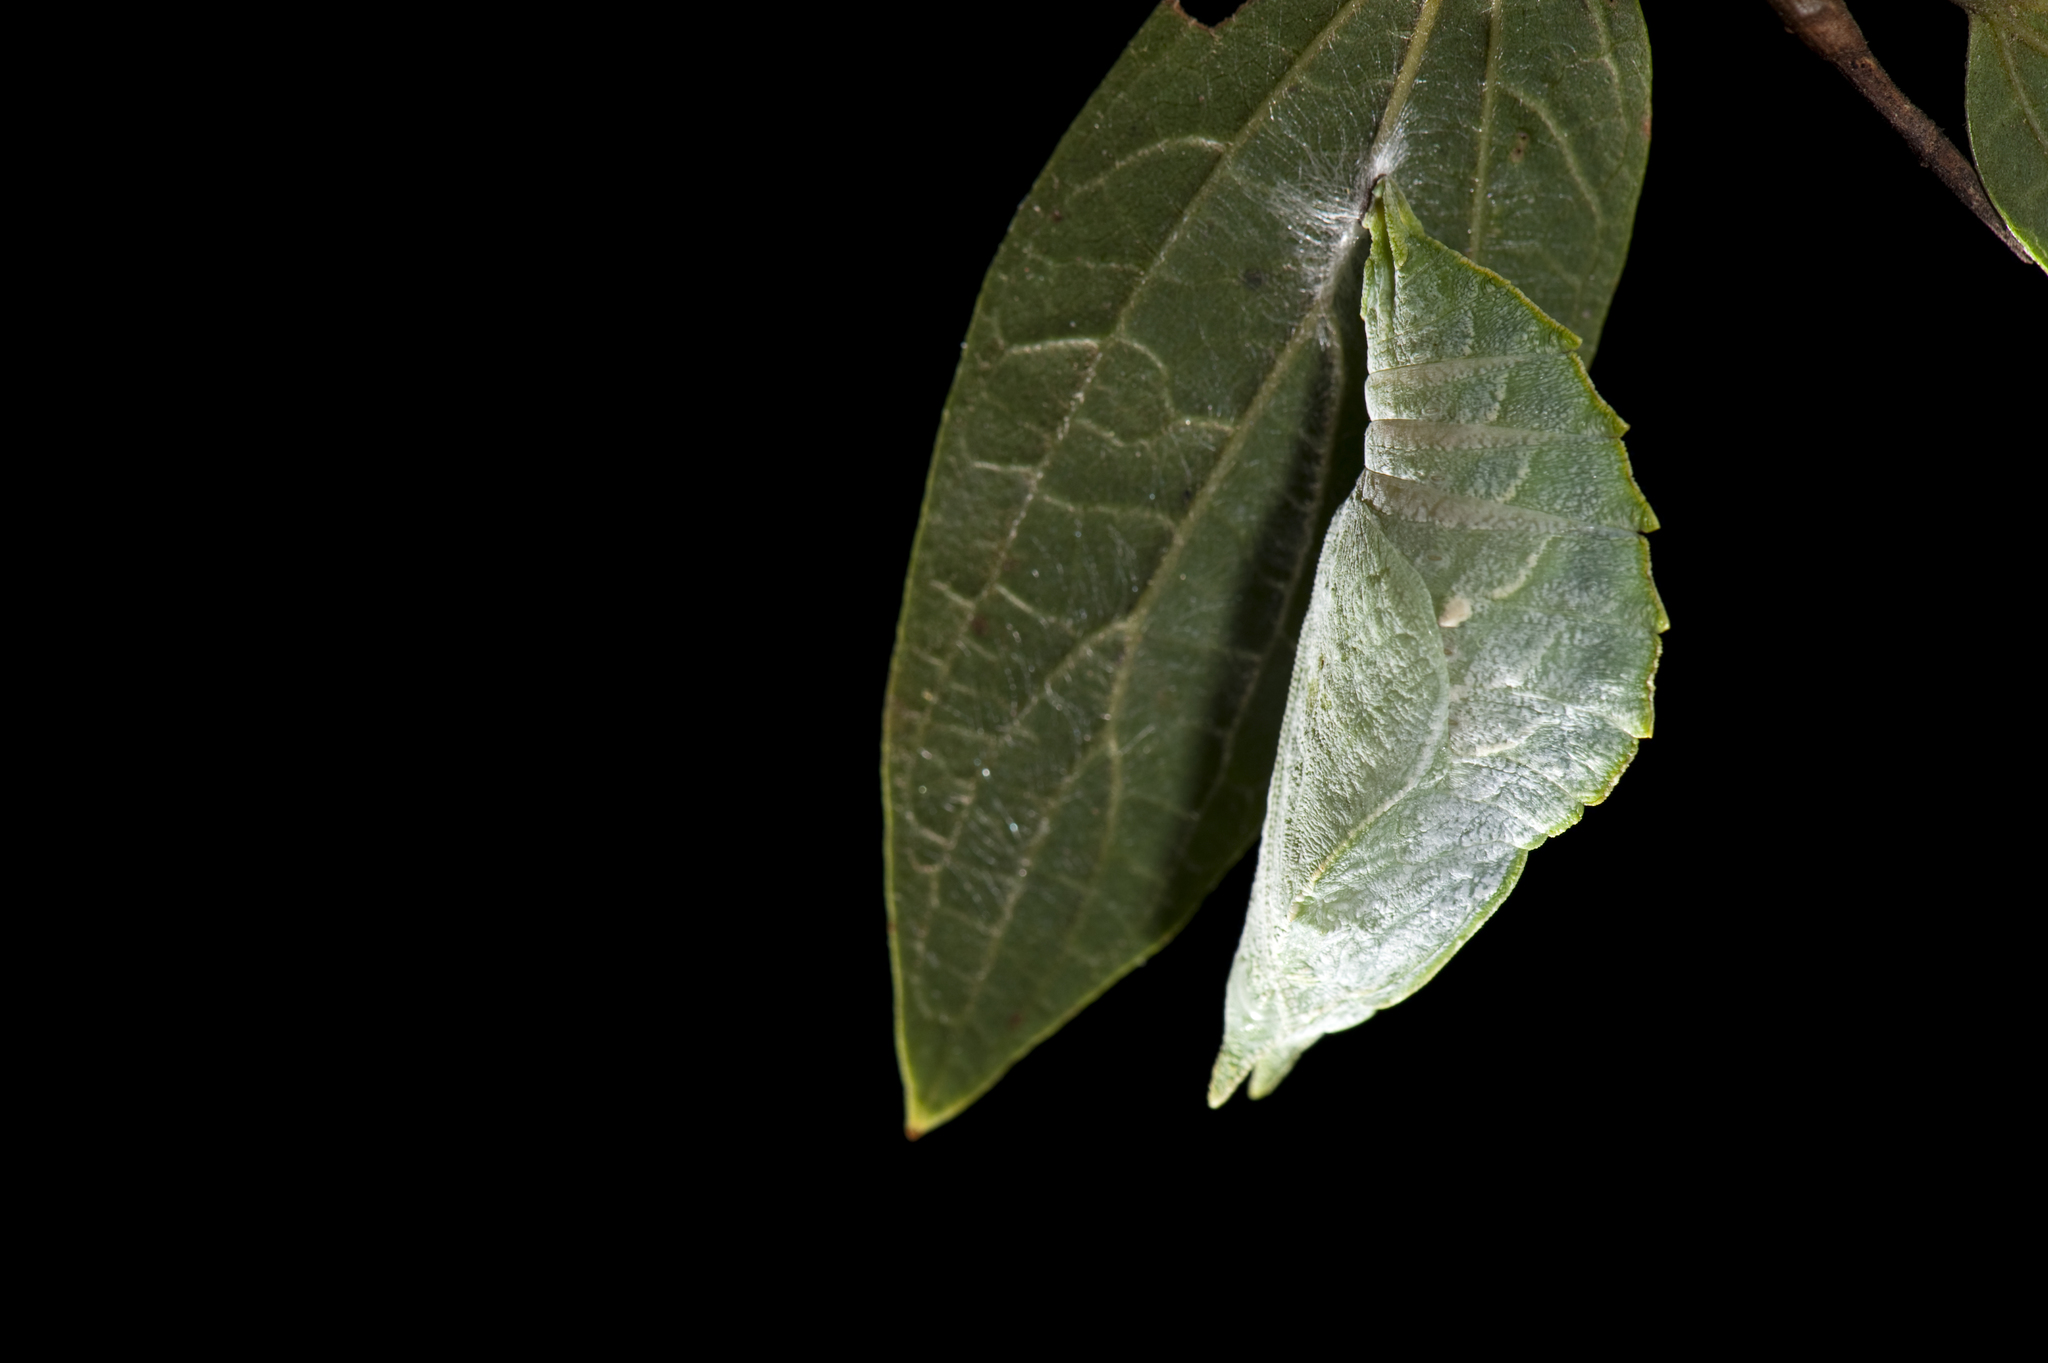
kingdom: Animalia
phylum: Arthropoda
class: Insecta
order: Lepidoptera
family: Nymphalidae
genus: Hestina
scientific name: Hestina assimilis
